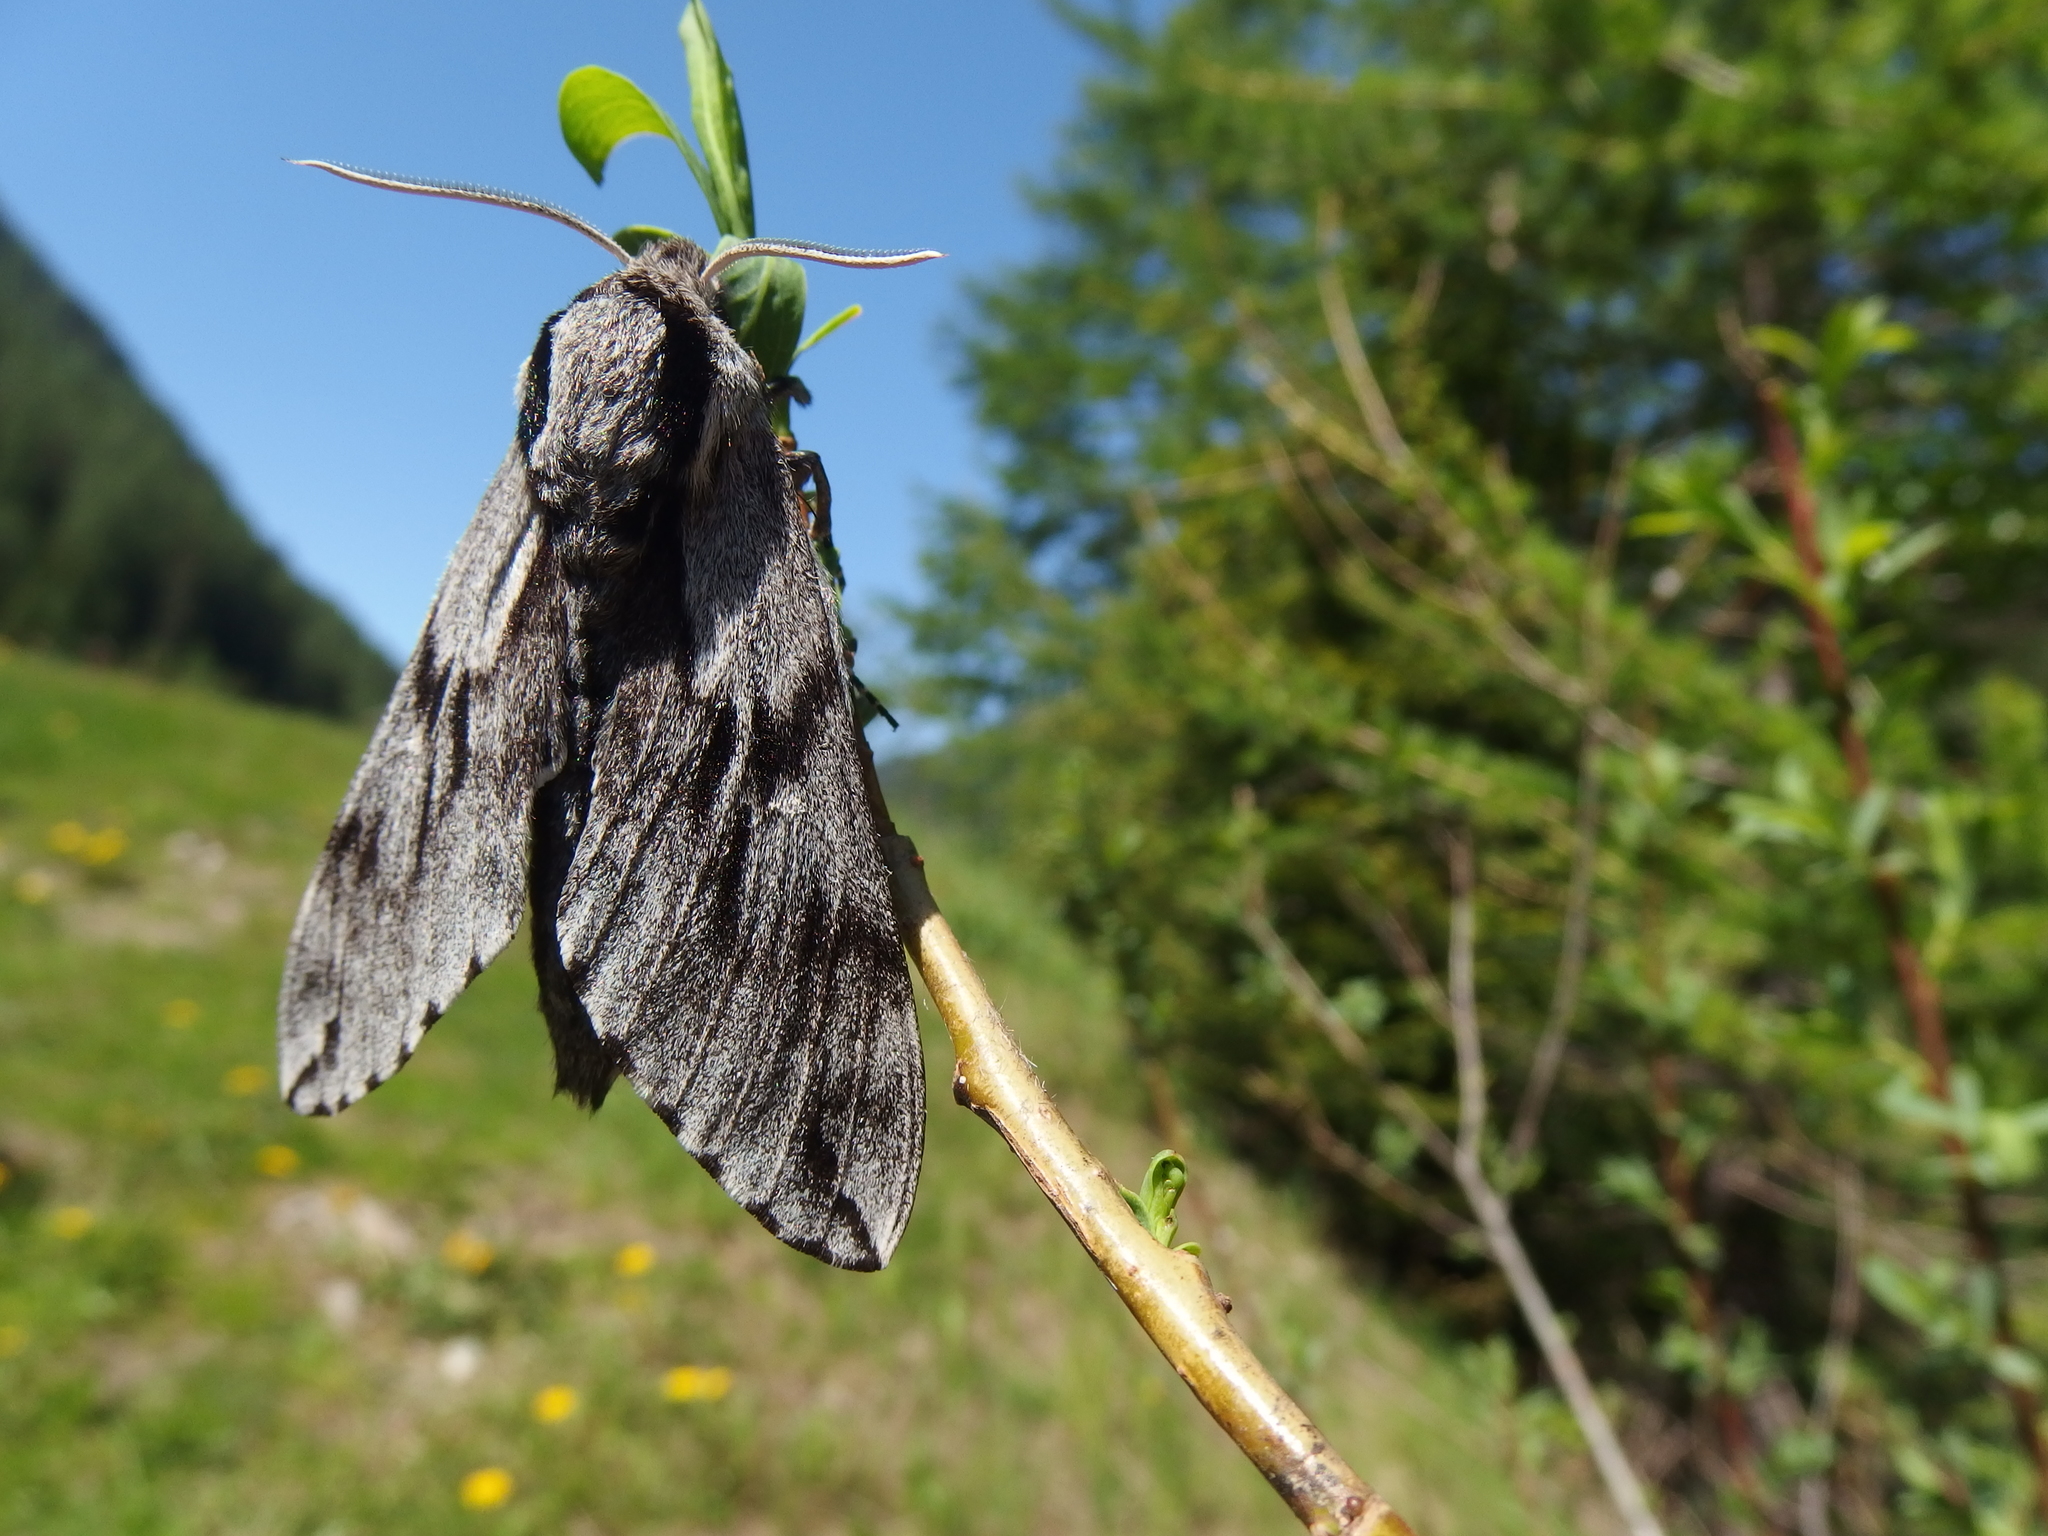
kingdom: Animalia
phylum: Arthropoda
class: Insecta
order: Lepidoptera
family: Sphingidae
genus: Sphinx
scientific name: Sphinx pinastri
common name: Pine hawk-moth
